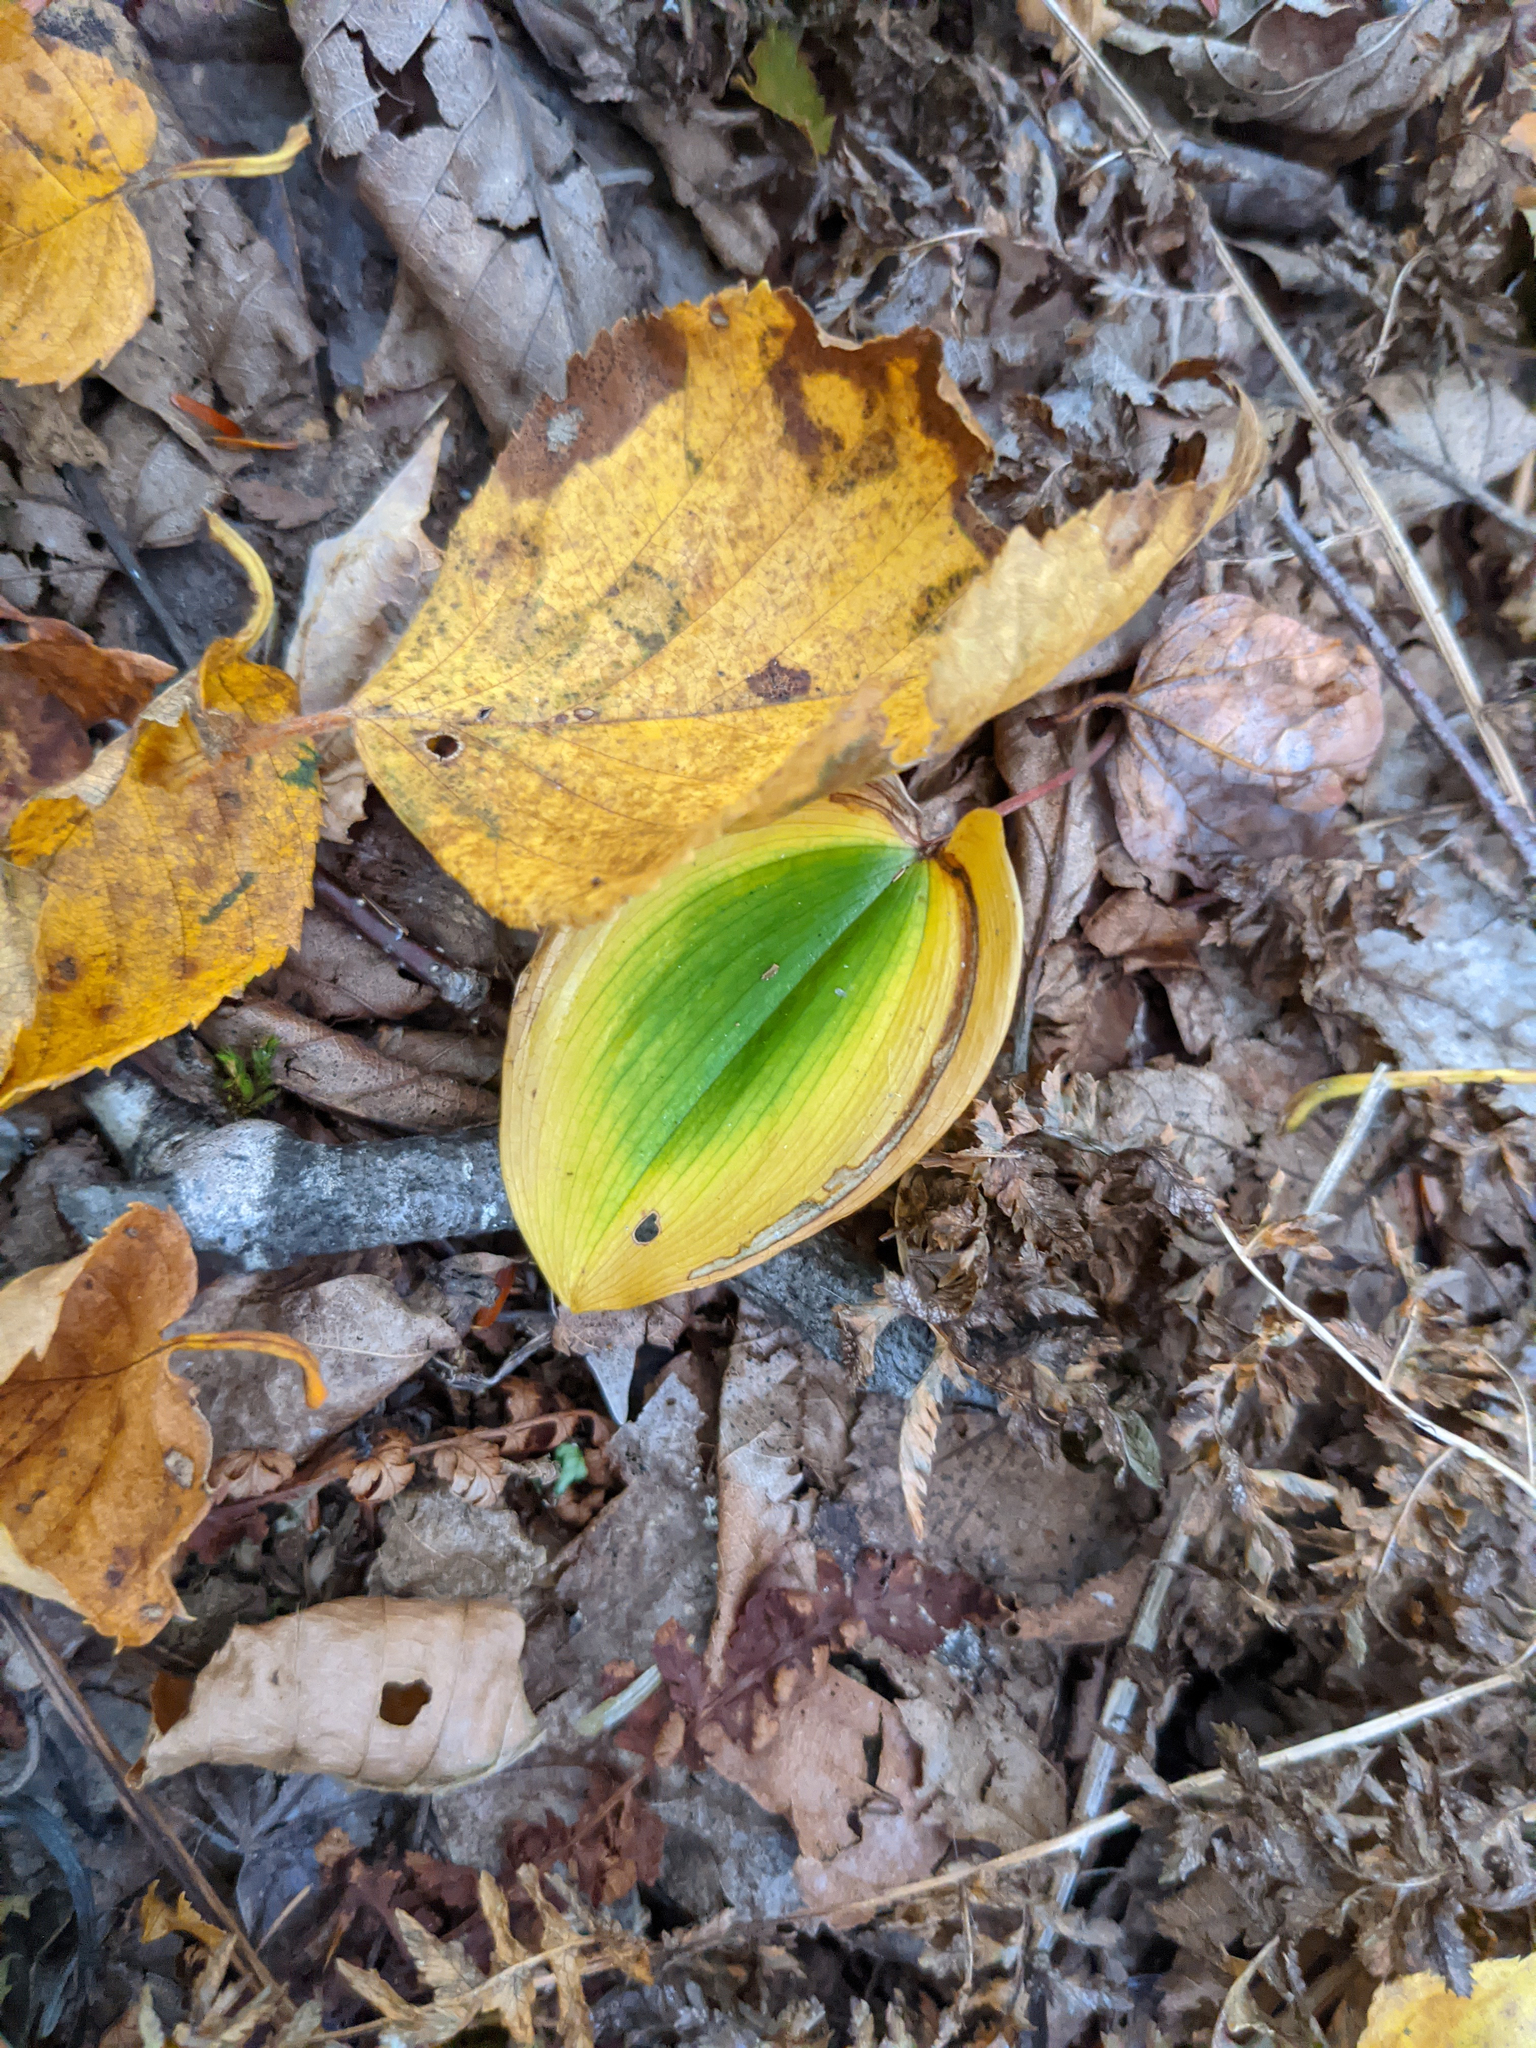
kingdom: Plantae
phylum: Tracheophyta
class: Liliopsida
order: Asparagales
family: Asparagaceae
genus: Maianthemum
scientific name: Maianthemum canadense
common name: False lily-of-the-valley
